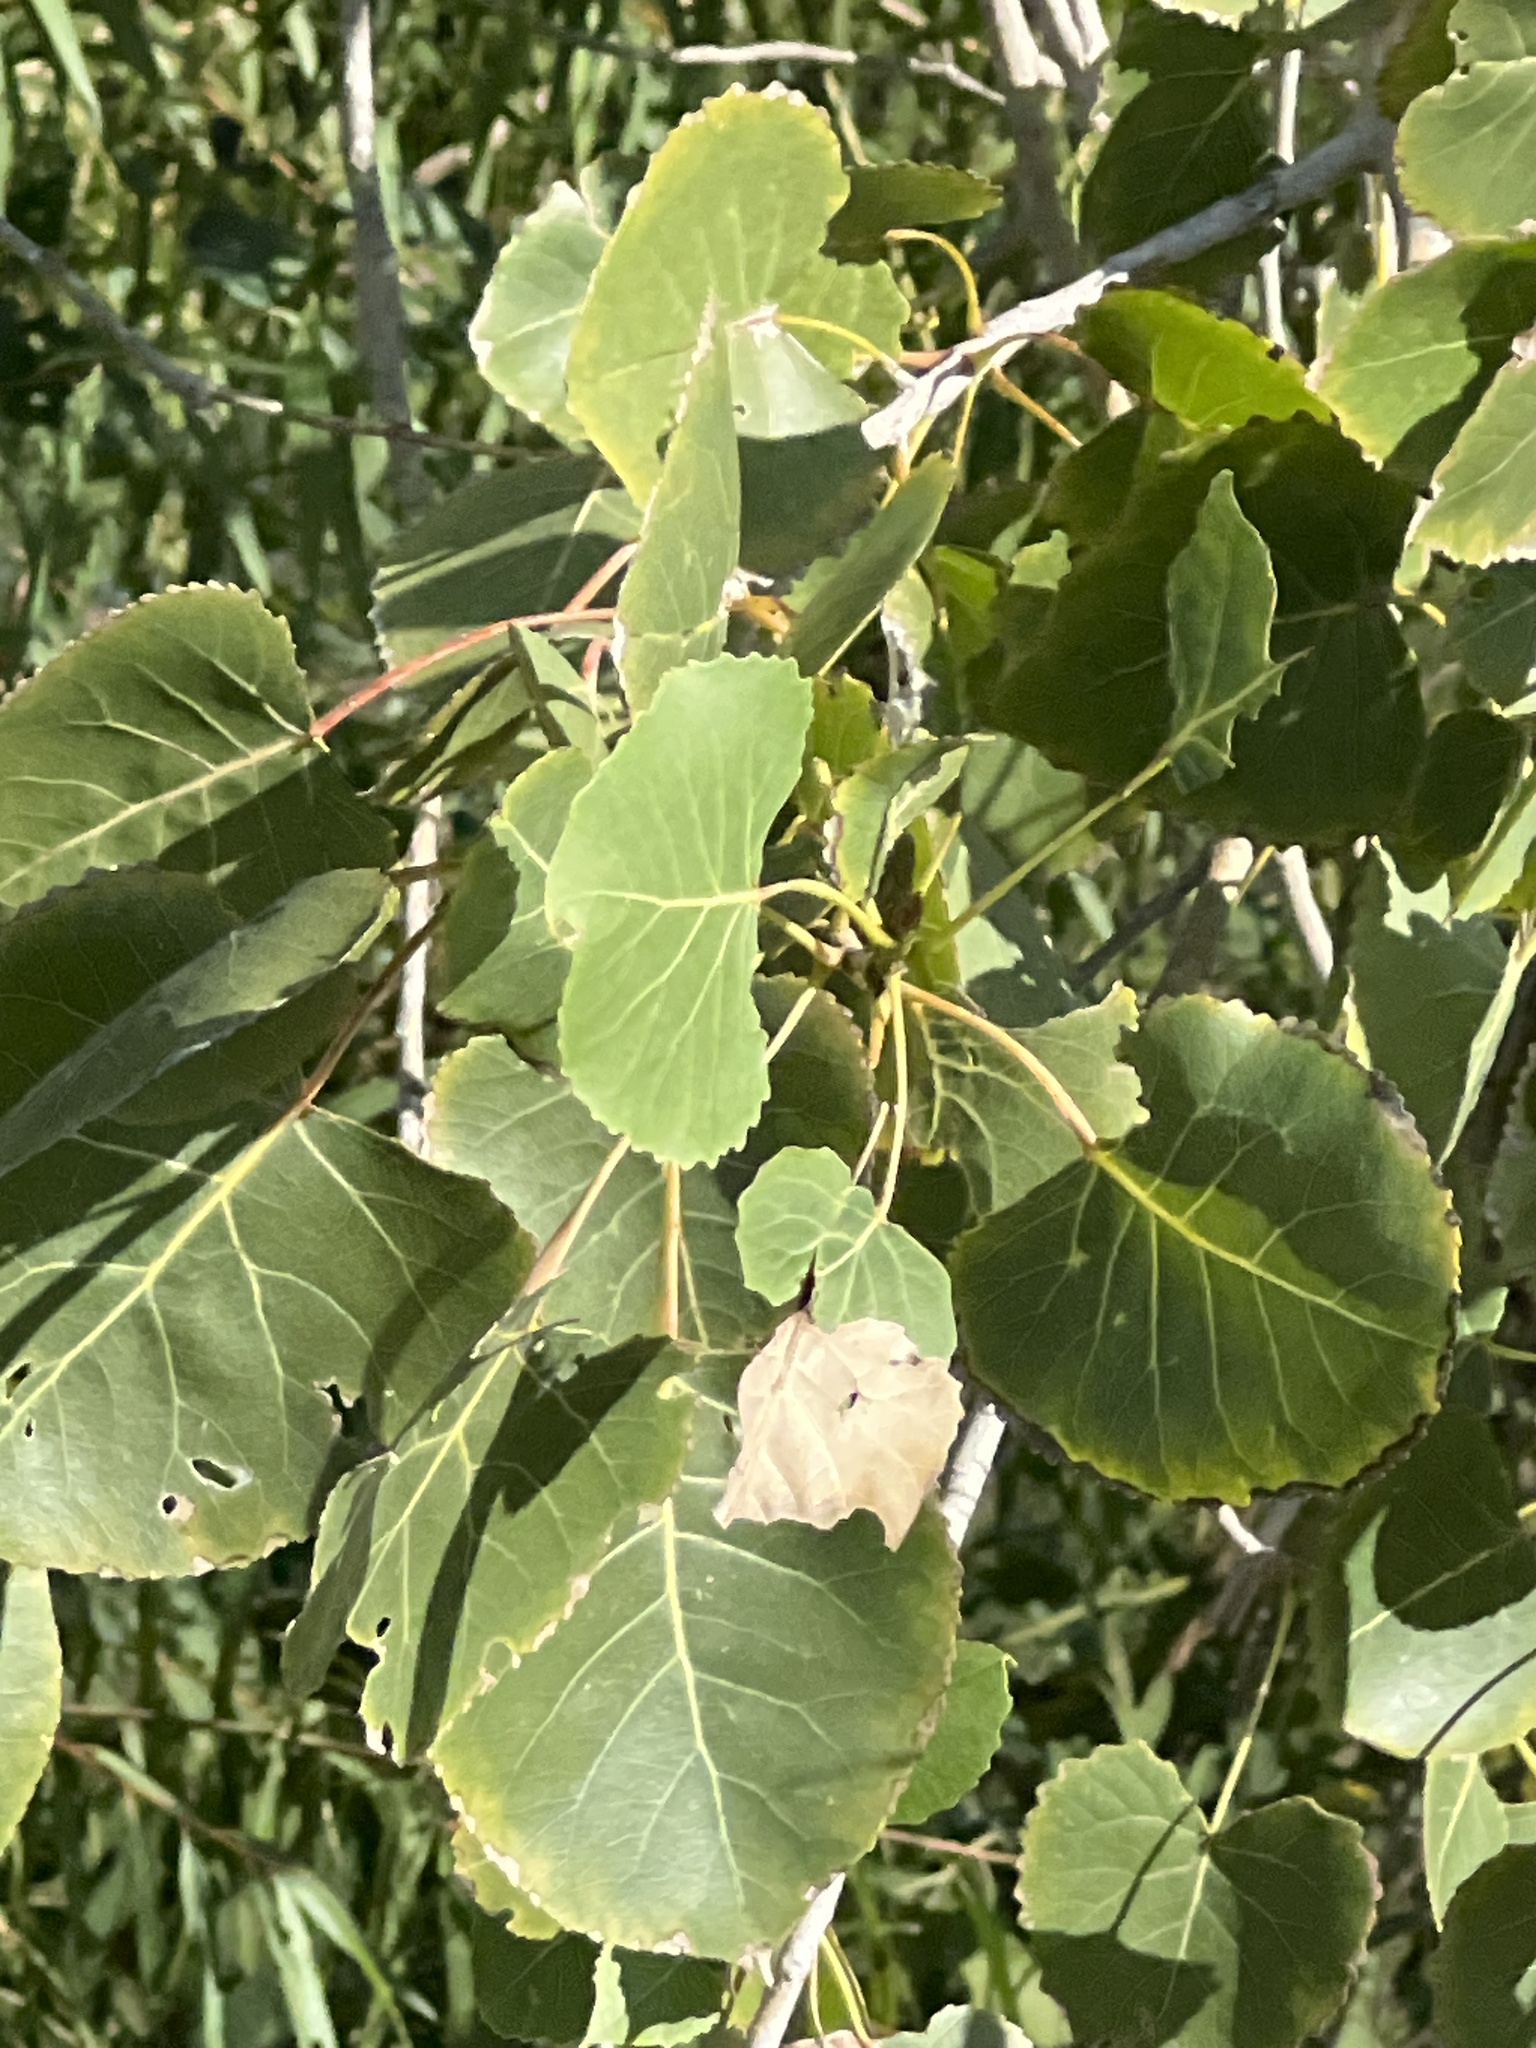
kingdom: Plantae
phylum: Tracheophyta
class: Magnoliopsida
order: Malpighiales
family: Salicaceae
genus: Populus
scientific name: Populus deltoides
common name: Eastern cottonwood
